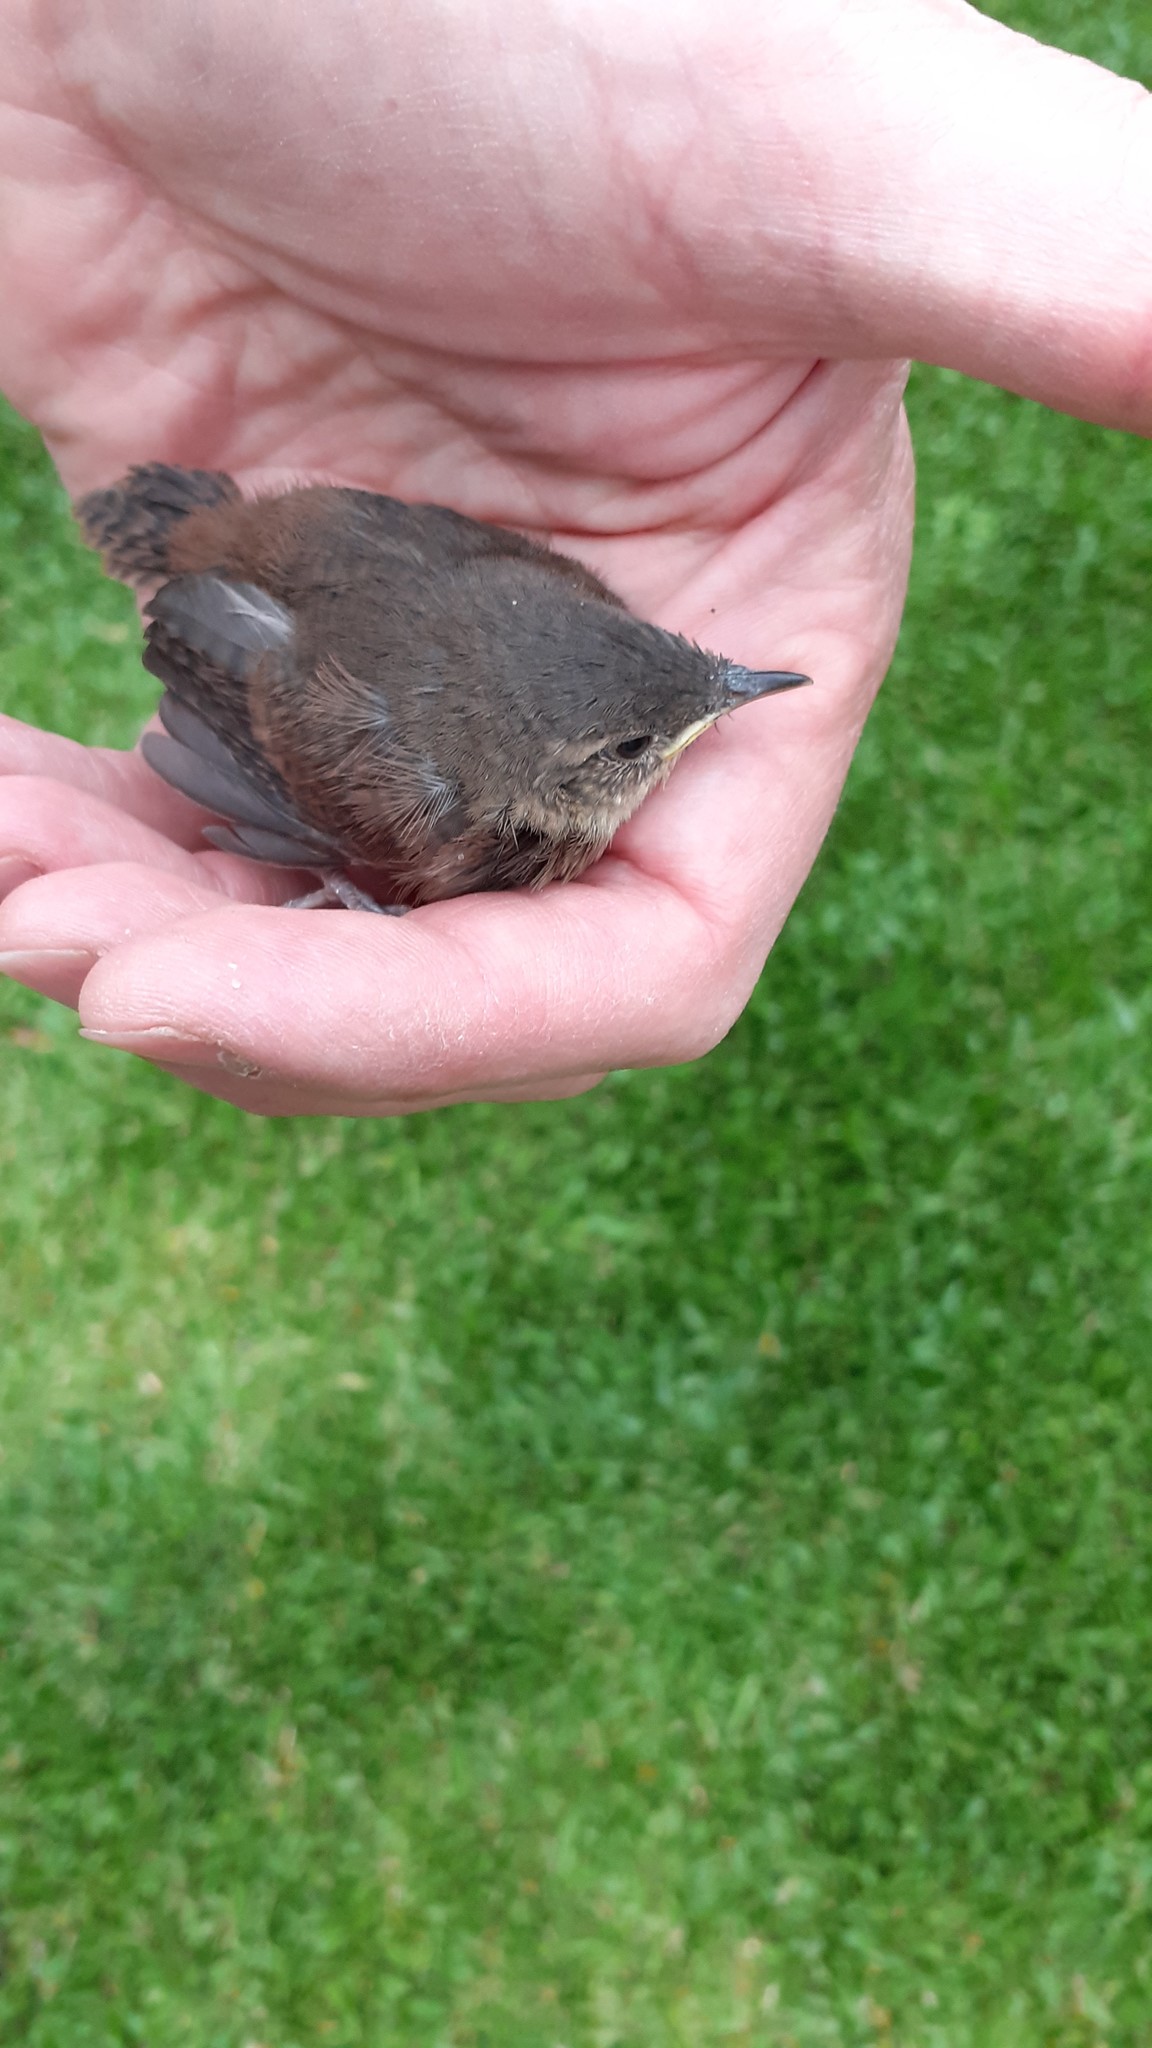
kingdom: Animalia
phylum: Chordata
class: Aves
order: Passeriformes
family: Troglodytidae
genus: Troglodytes
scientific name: Troglodytes aedon
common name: House wren
